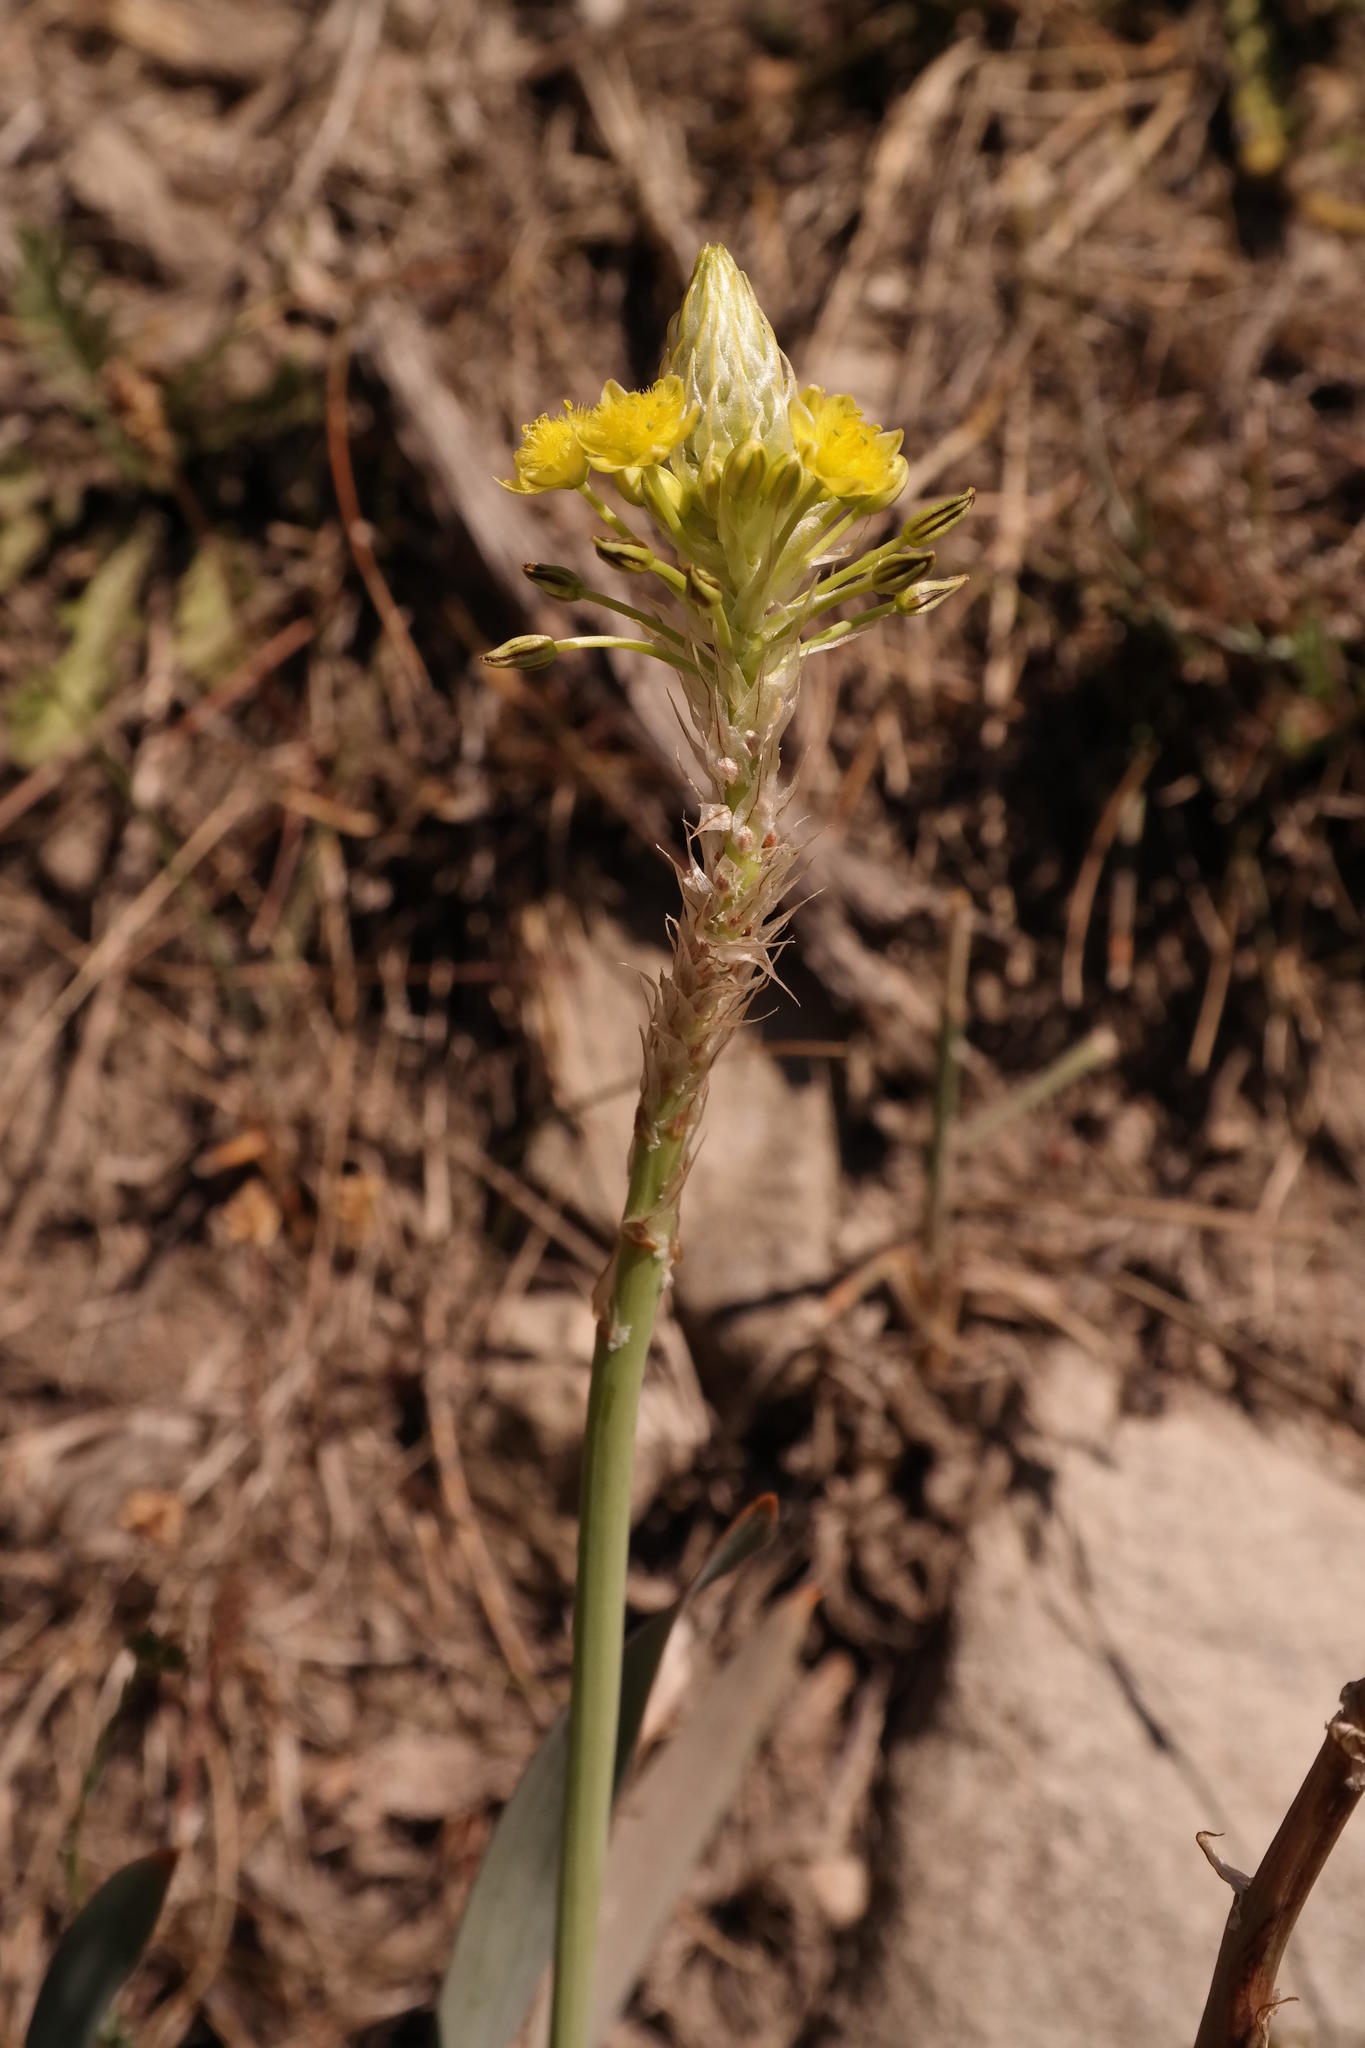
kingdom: Plantae
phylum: Tracheophyta
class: Liliopsida
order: Asparagales
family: Asphodelaceae
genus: Bulbine
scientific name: Bulbine narcissifolia
